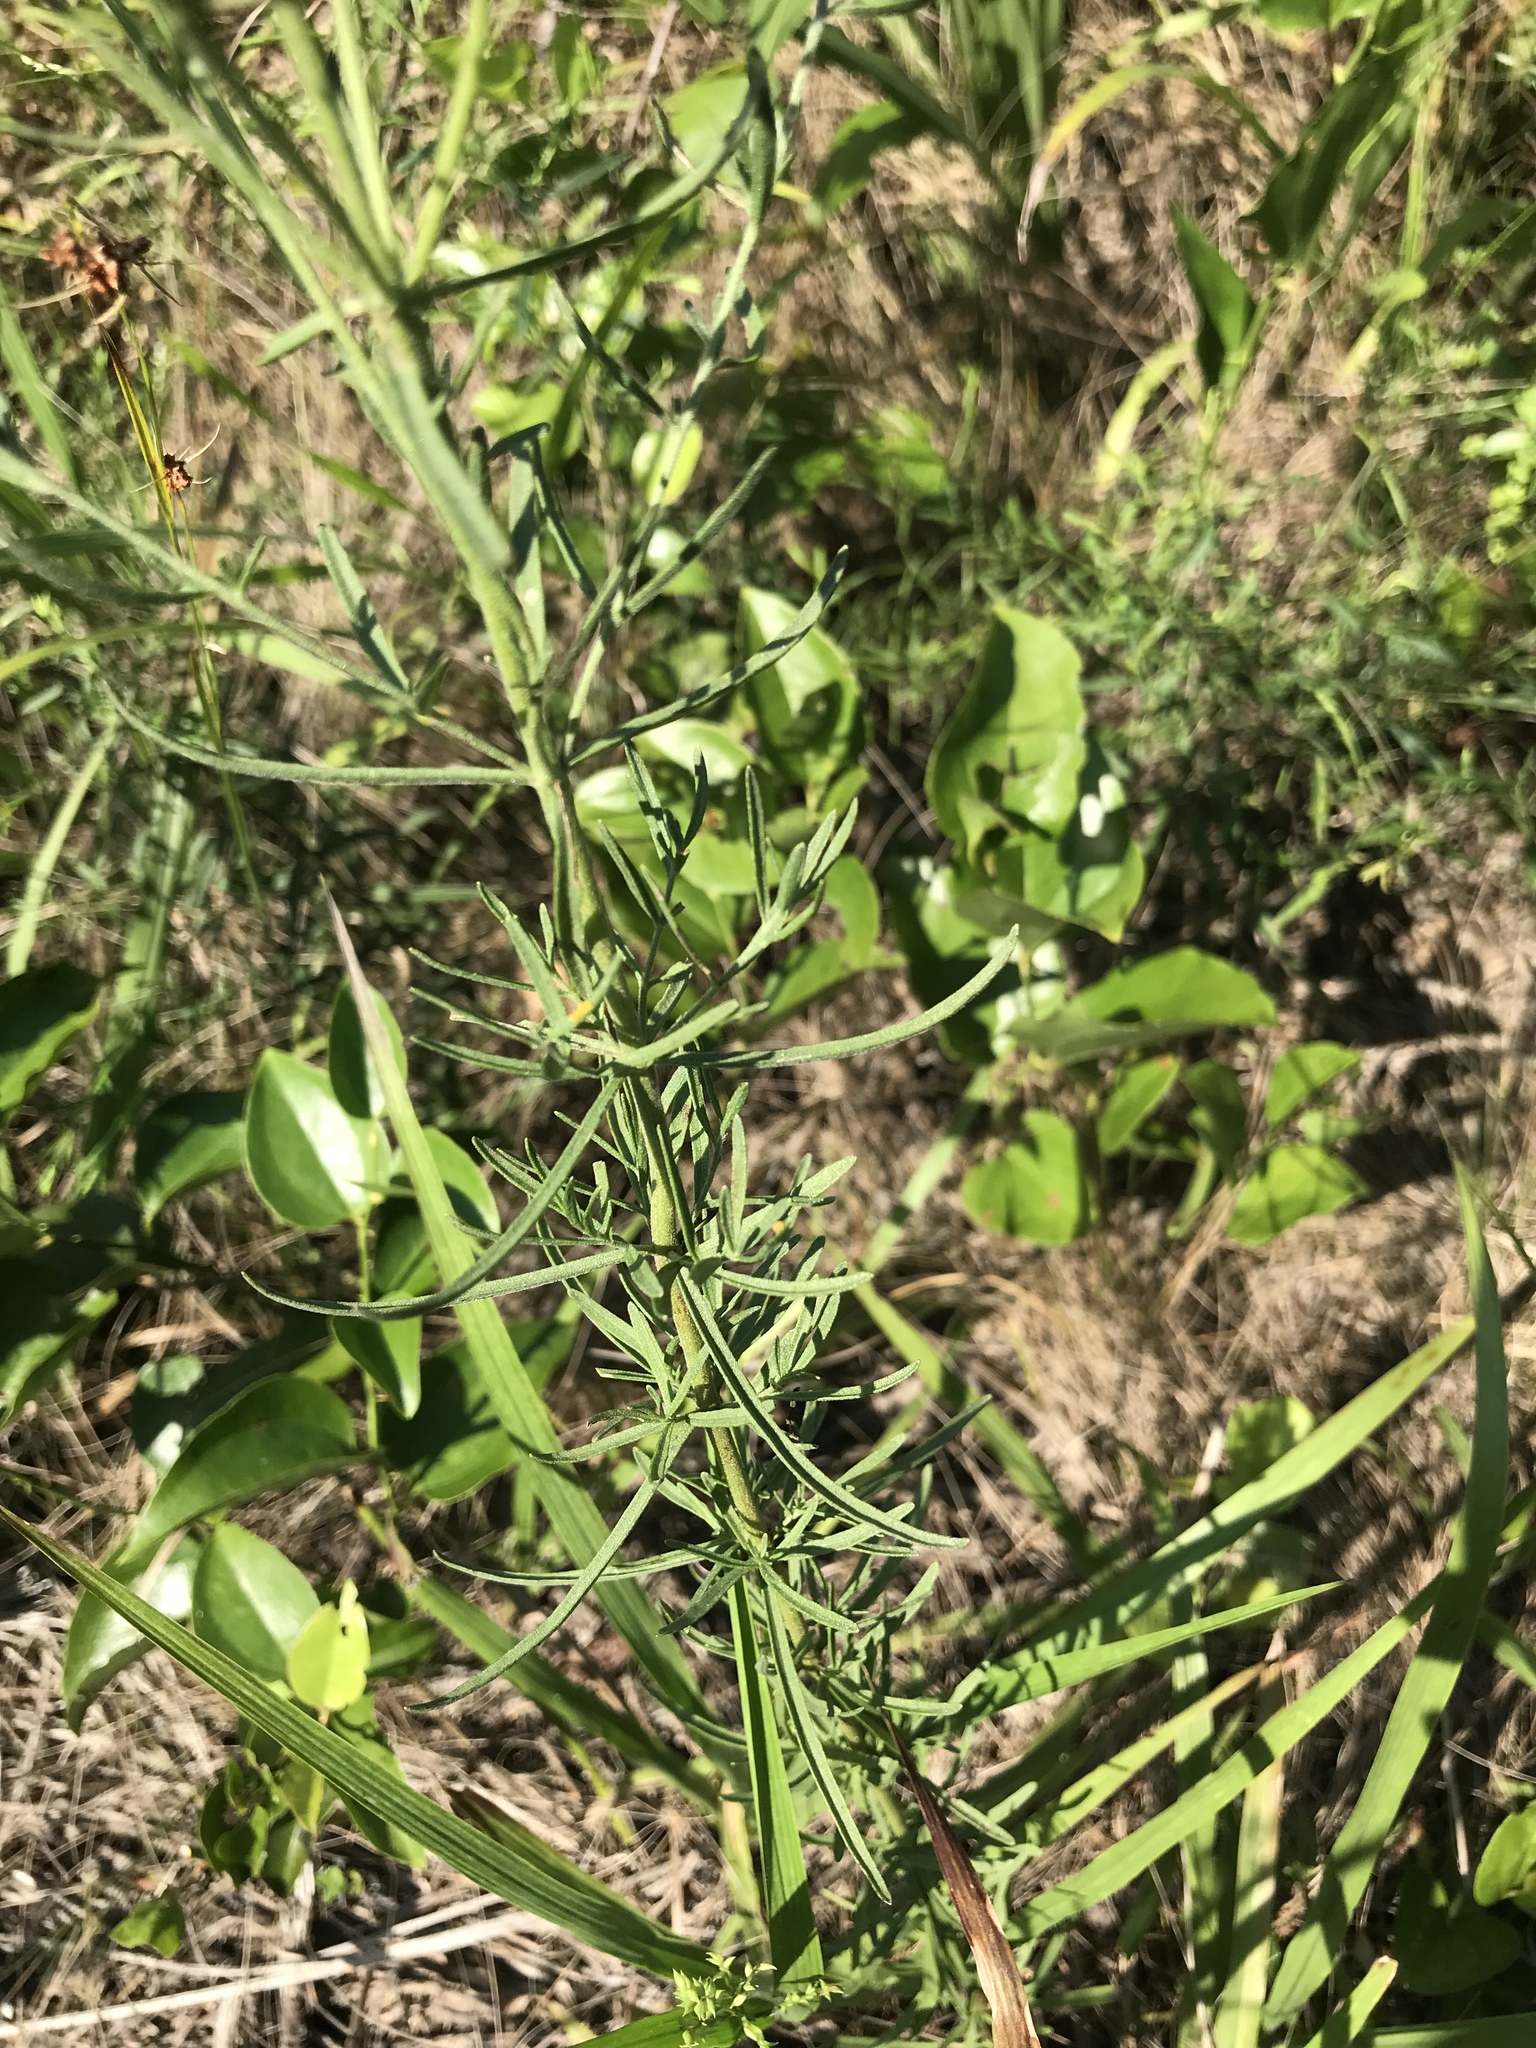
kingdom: Plantae
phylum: Tracheophyta
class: Magnoliopsida
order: Asterales
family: Asteraceae
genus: Eupatorium
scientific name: Eupatorium hyssopifolium
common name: Hyssop-leaf thoroughwort
